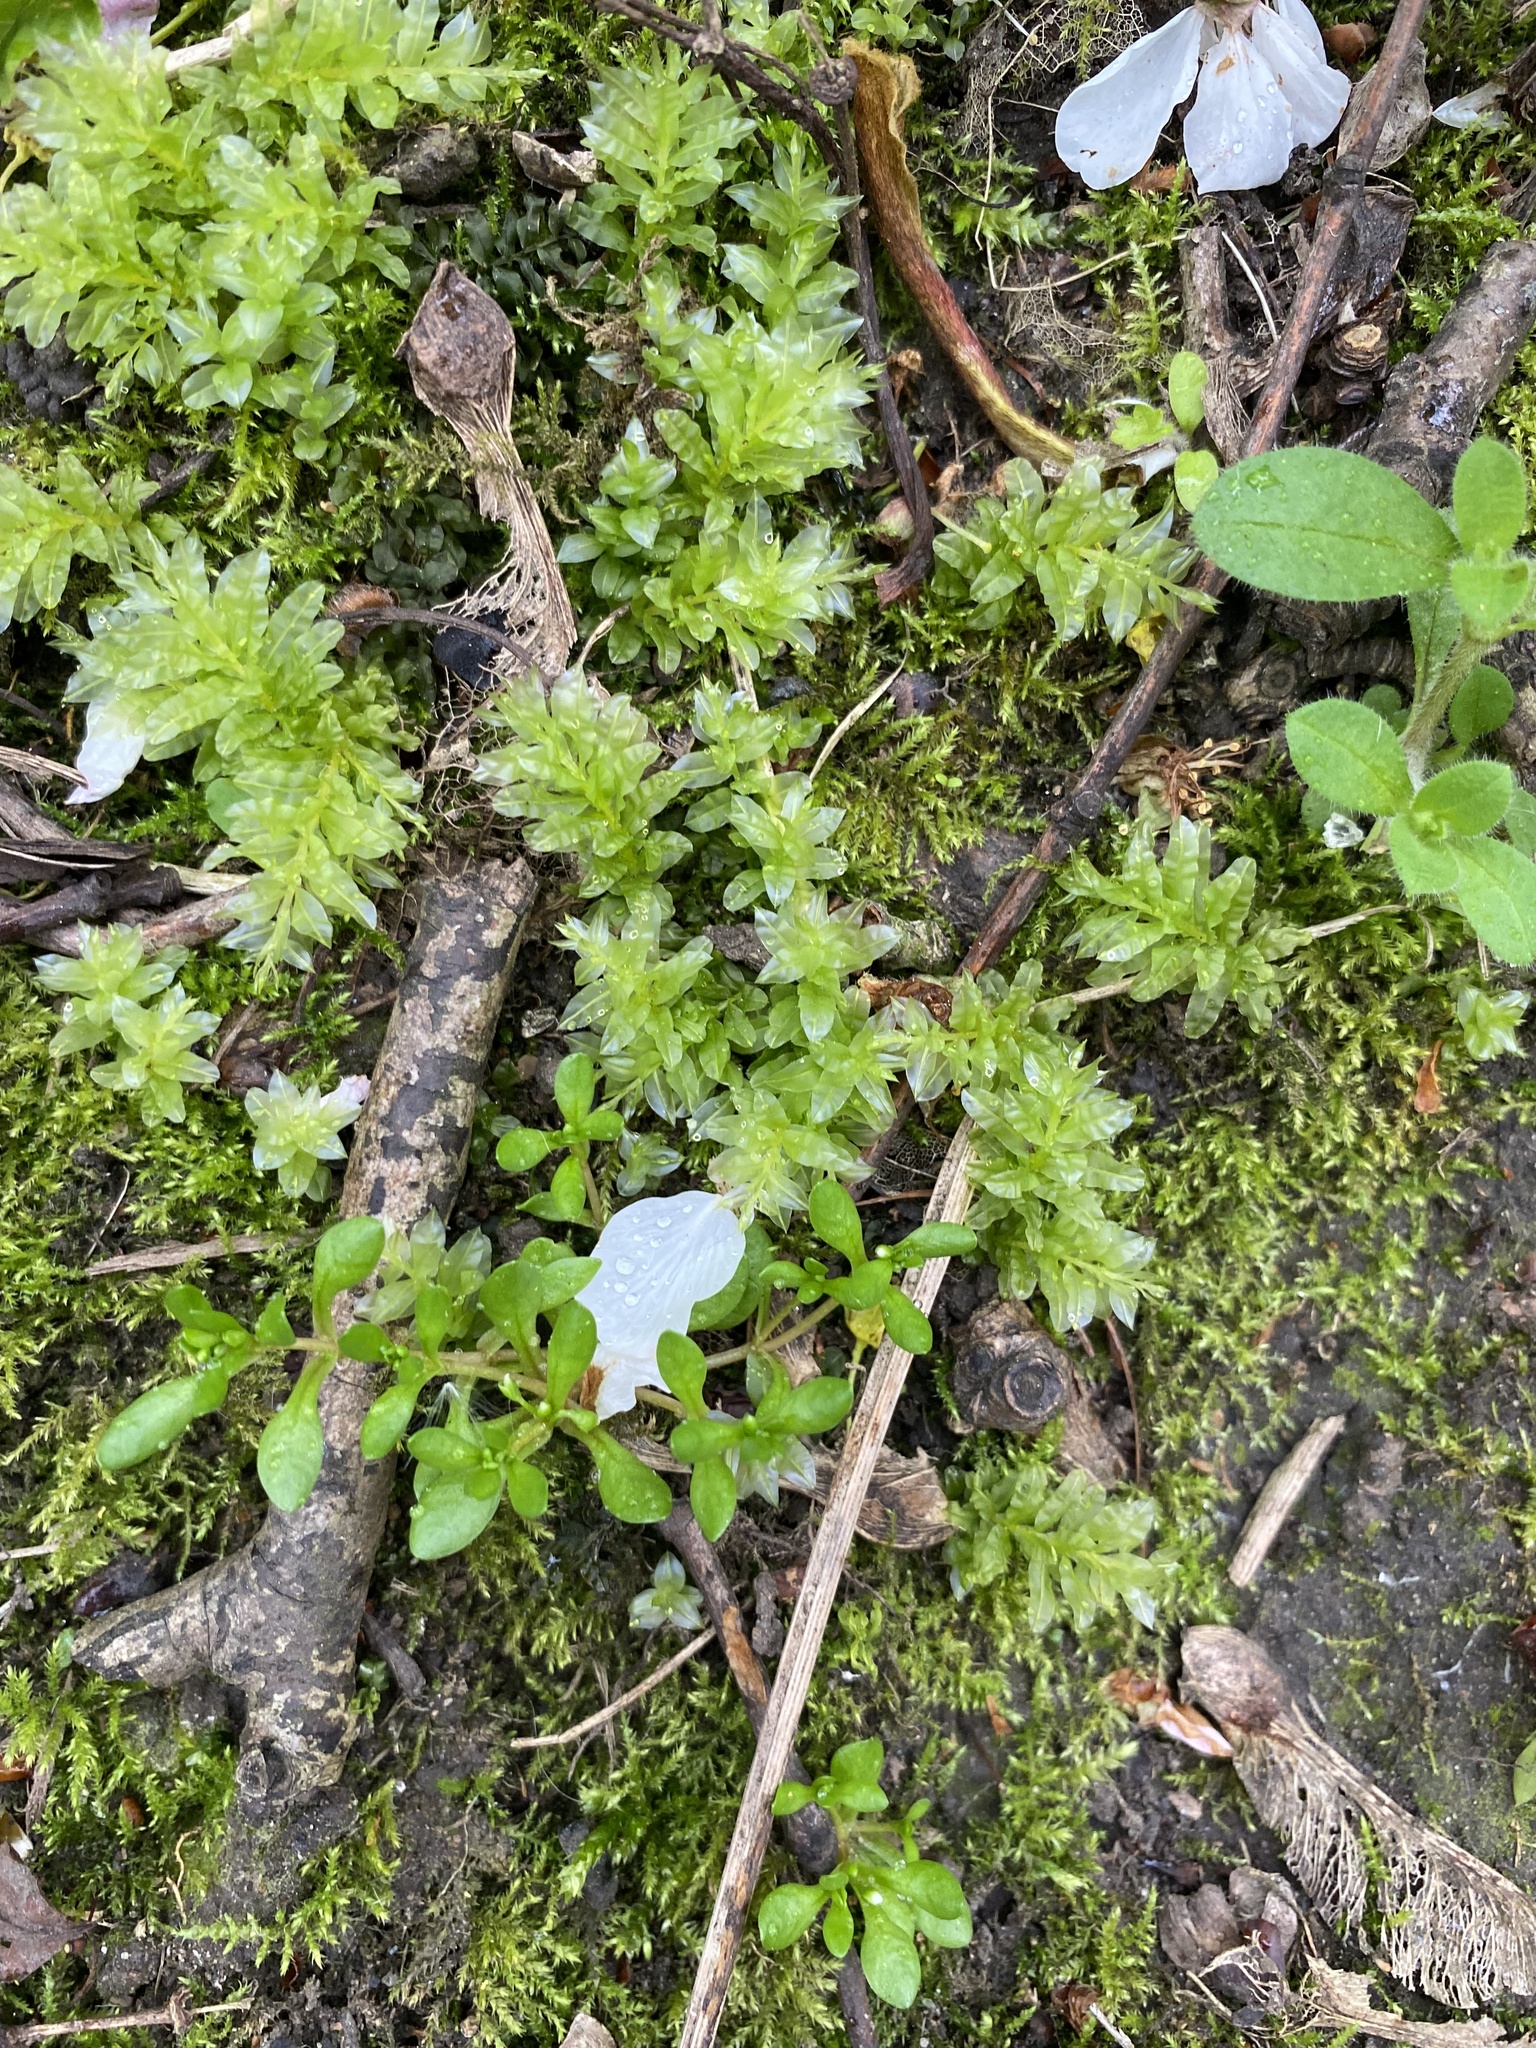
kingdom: Plantae
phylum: Bryophyta
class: Bryopsida
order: Bryales
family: Mniaceae
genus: Plagiomnium
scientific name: Plagiomnium undulatum
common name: Hart's-tongue thyme-moss
